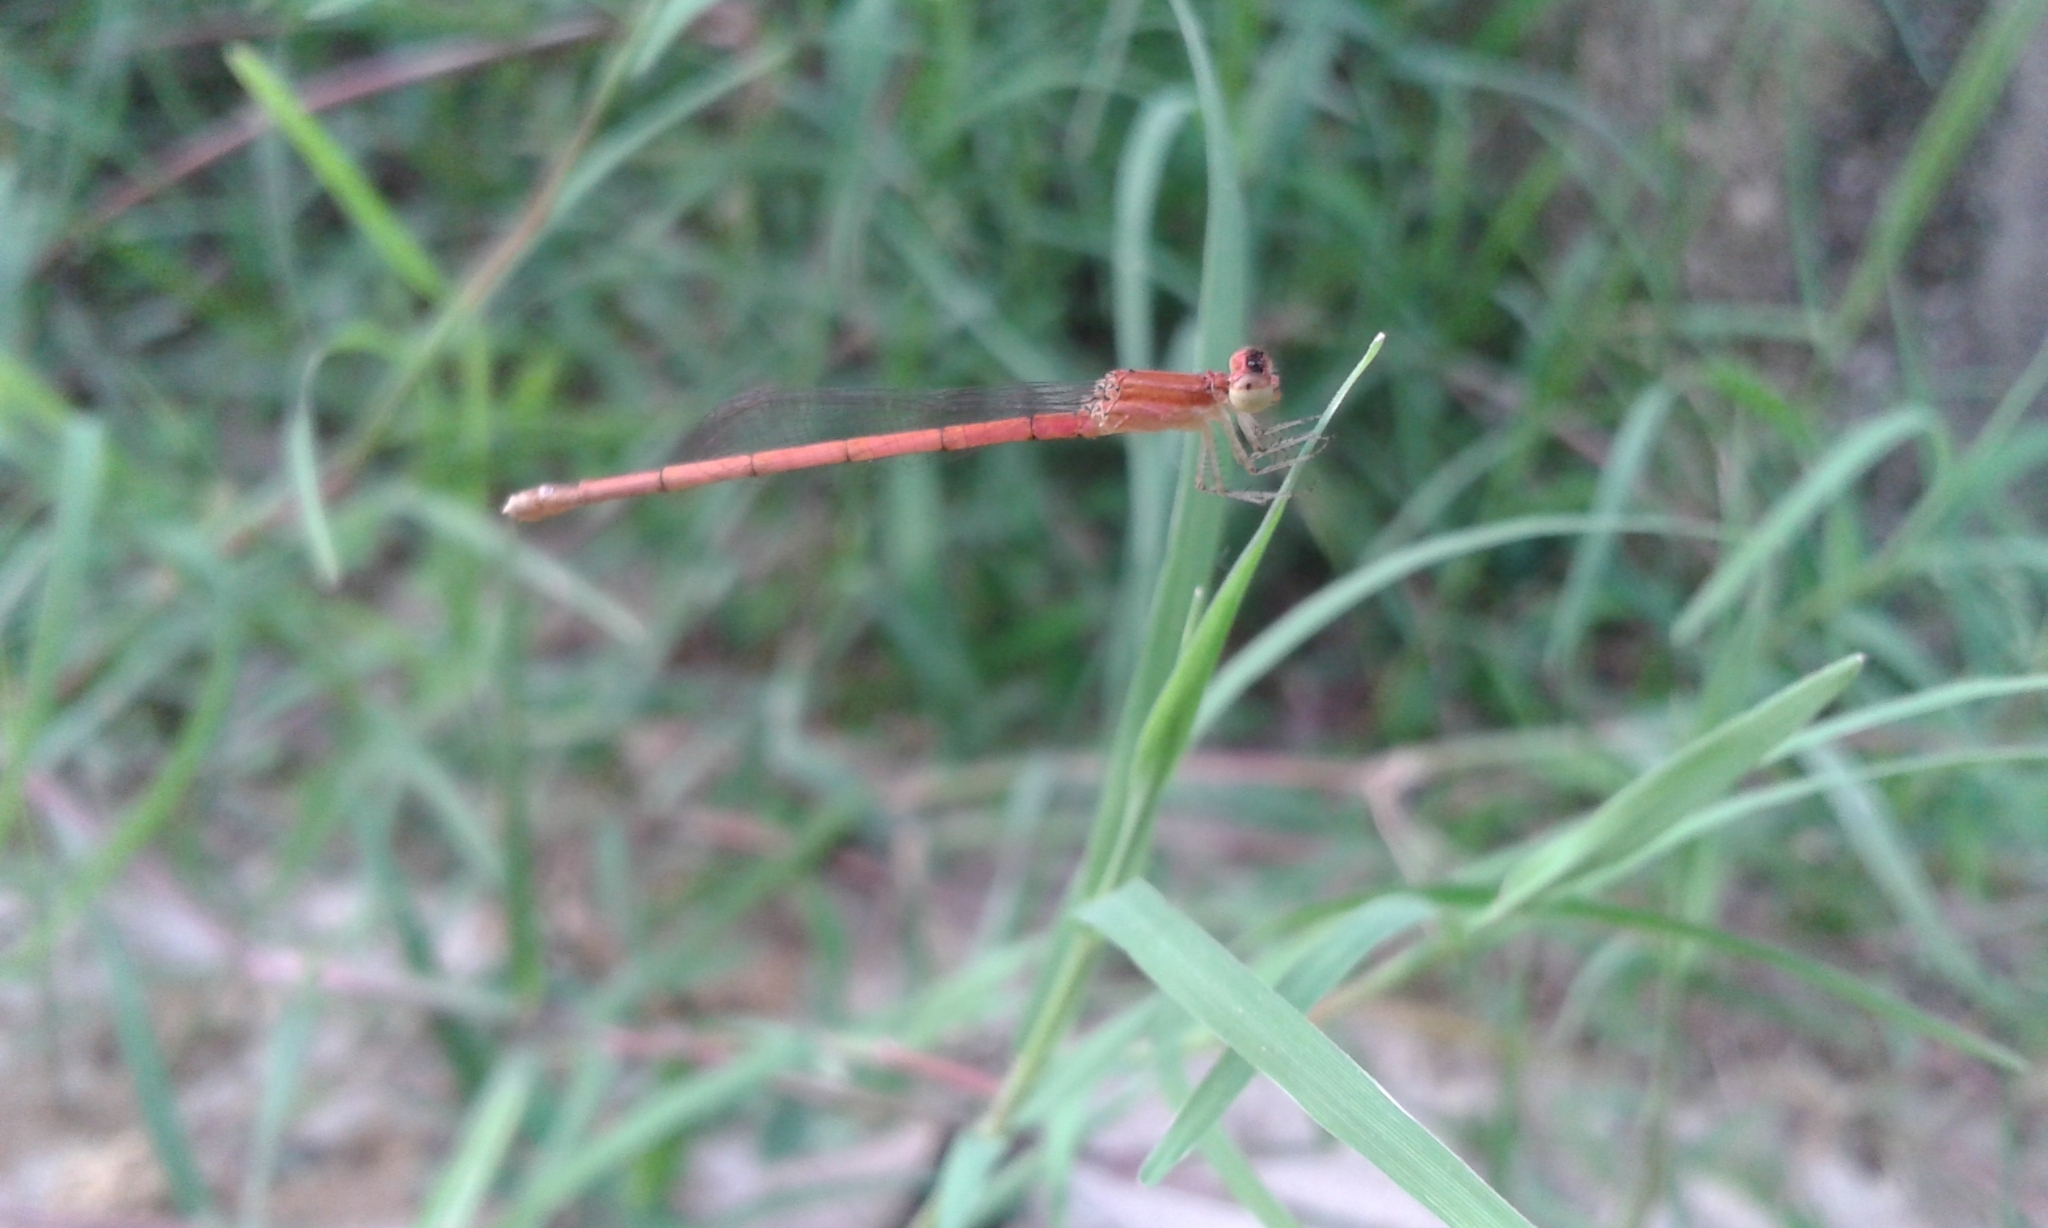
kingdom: Animalia
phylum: Arthropoda
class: Insecta
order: Odonata
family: Coenagrionidae
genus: Agriocnemis
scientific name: Agriocnemis pygmaea
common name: Pygmy wisp
